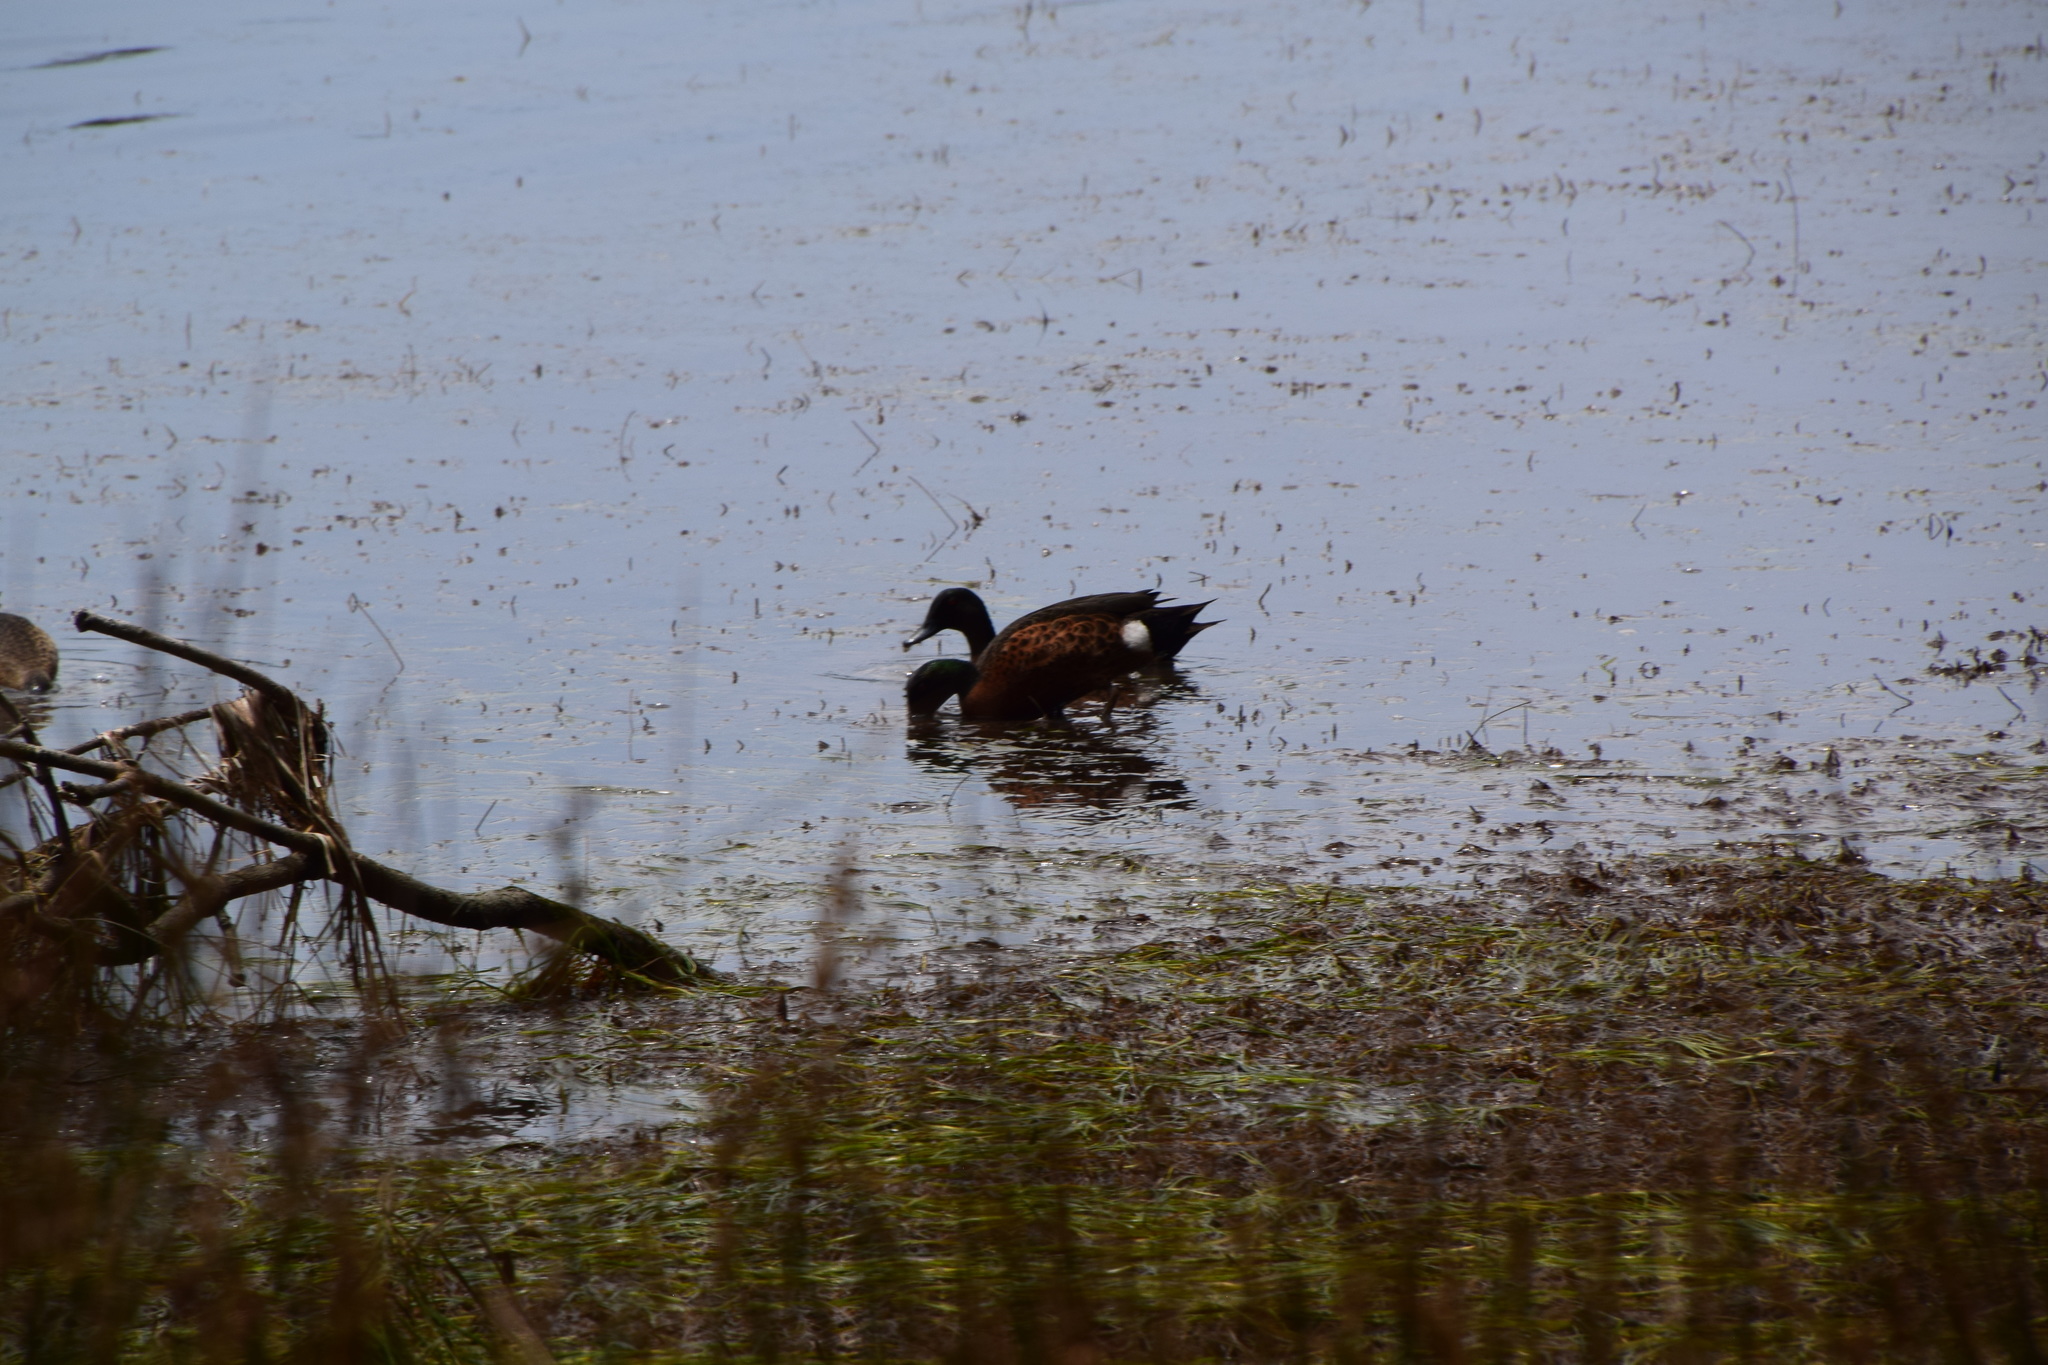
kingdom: Animalia
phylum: Chordata
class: Aves
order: Anseriformes
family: Anatidae
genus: Anas
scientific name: Anas castanea
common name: Chestnut teal
